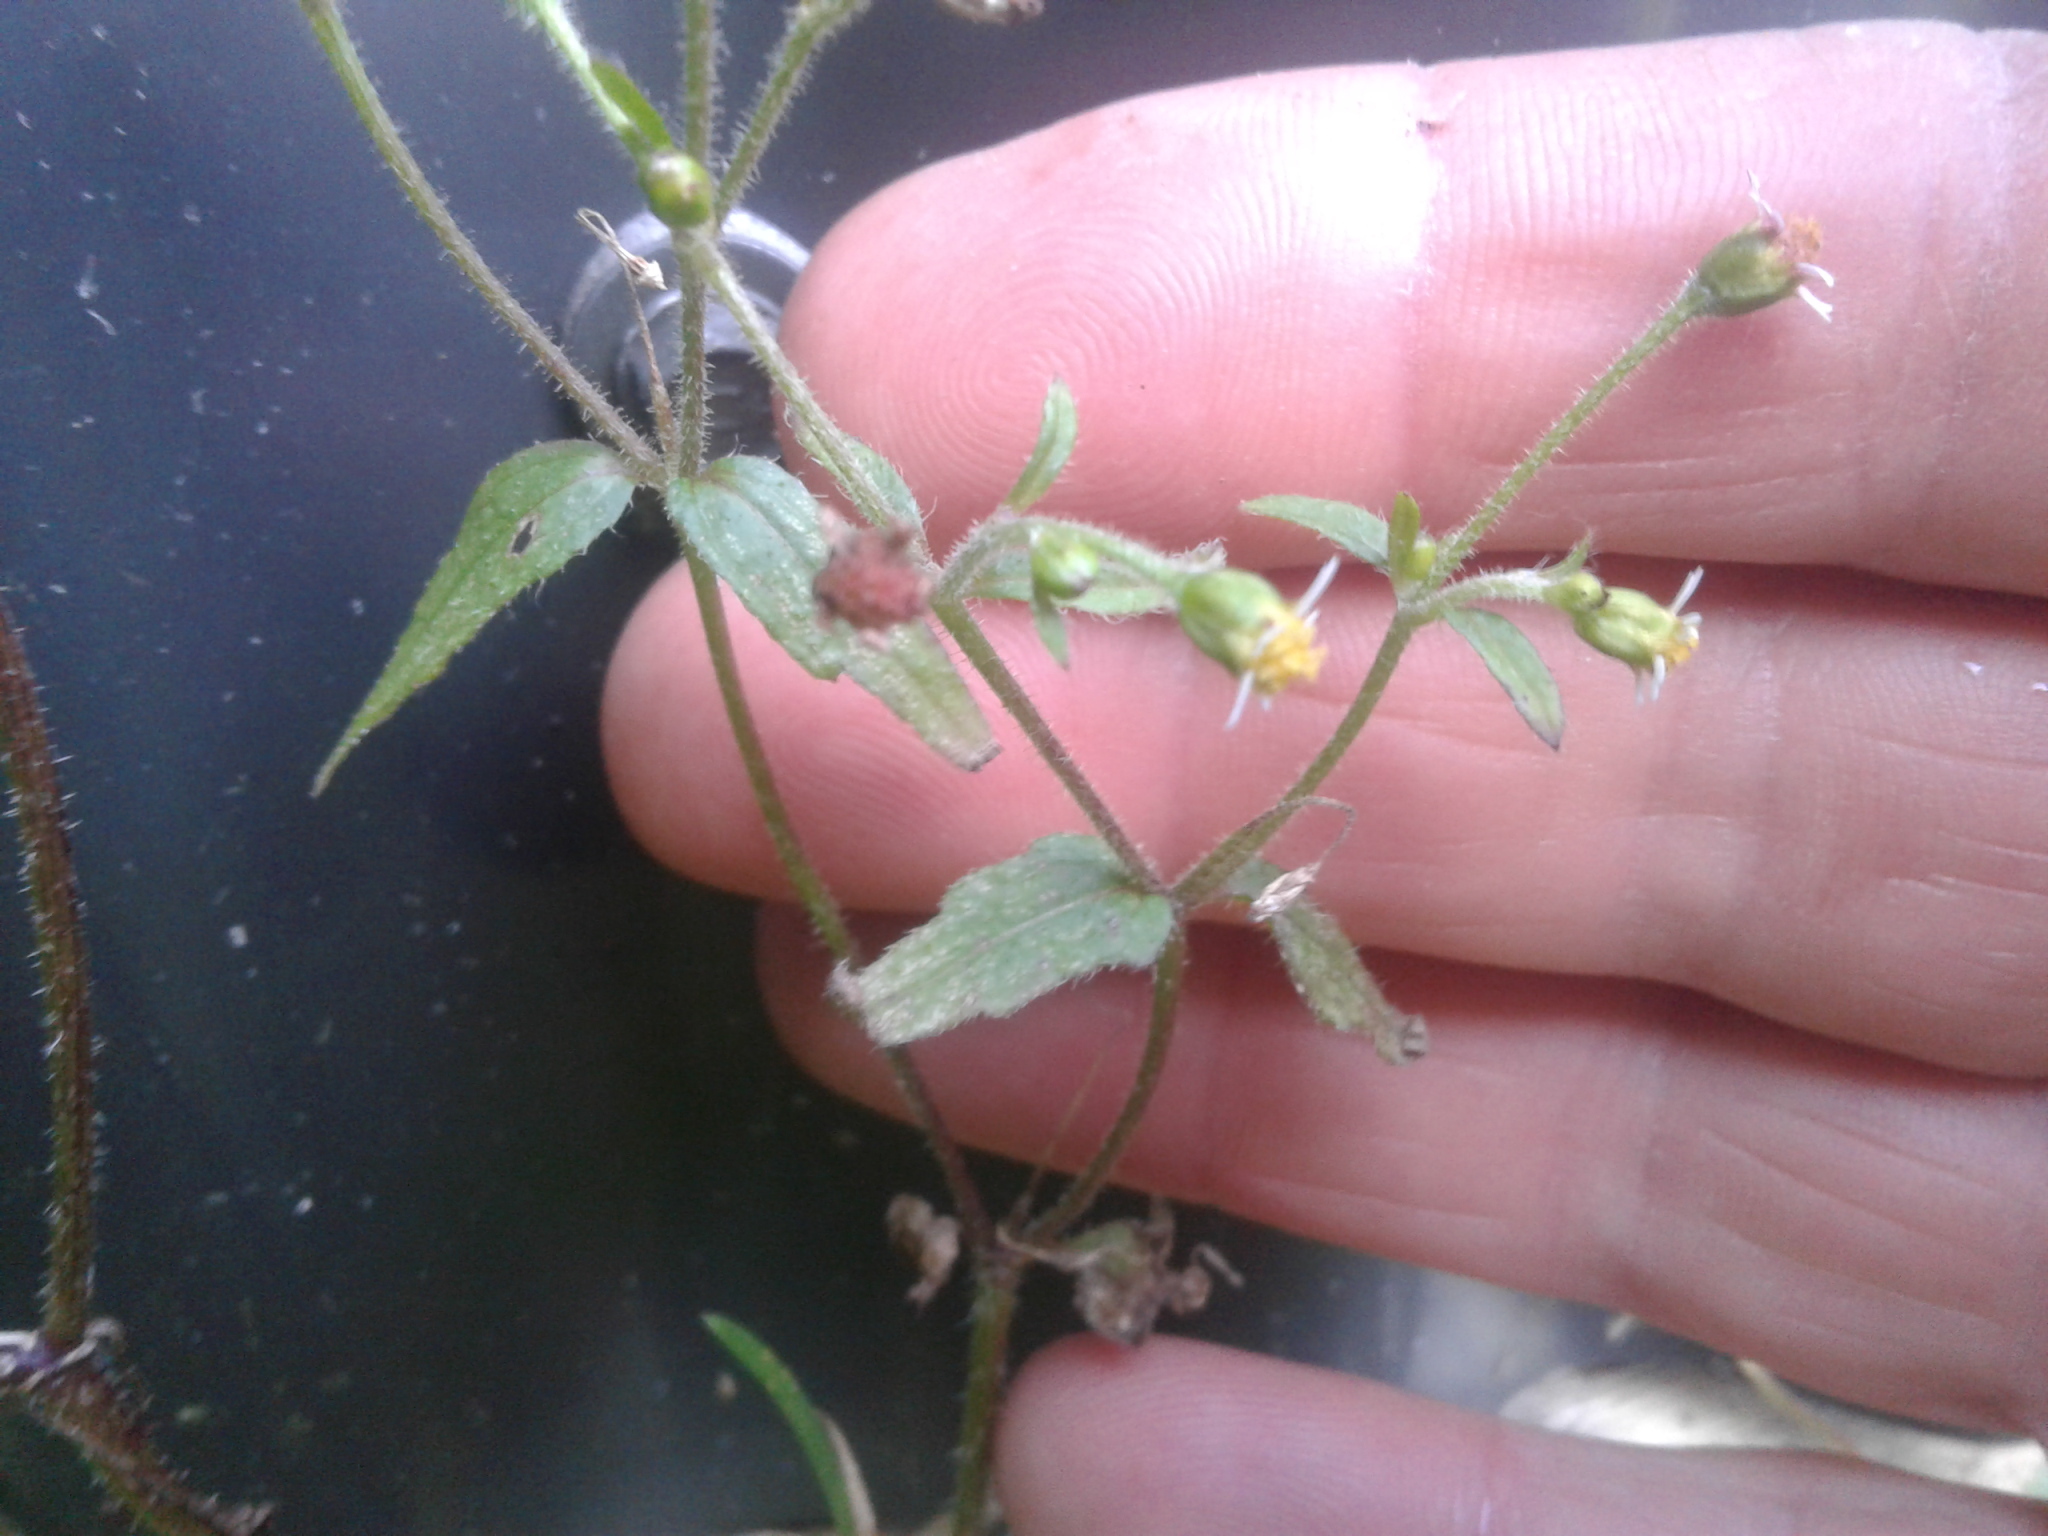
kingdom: Plantae
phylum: Tracheophyta
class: Magnoliopsida
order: Asterales
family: Asteraceae
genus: Galinsoga
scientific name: Galinsoga parviflora
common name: Gallant soldier
